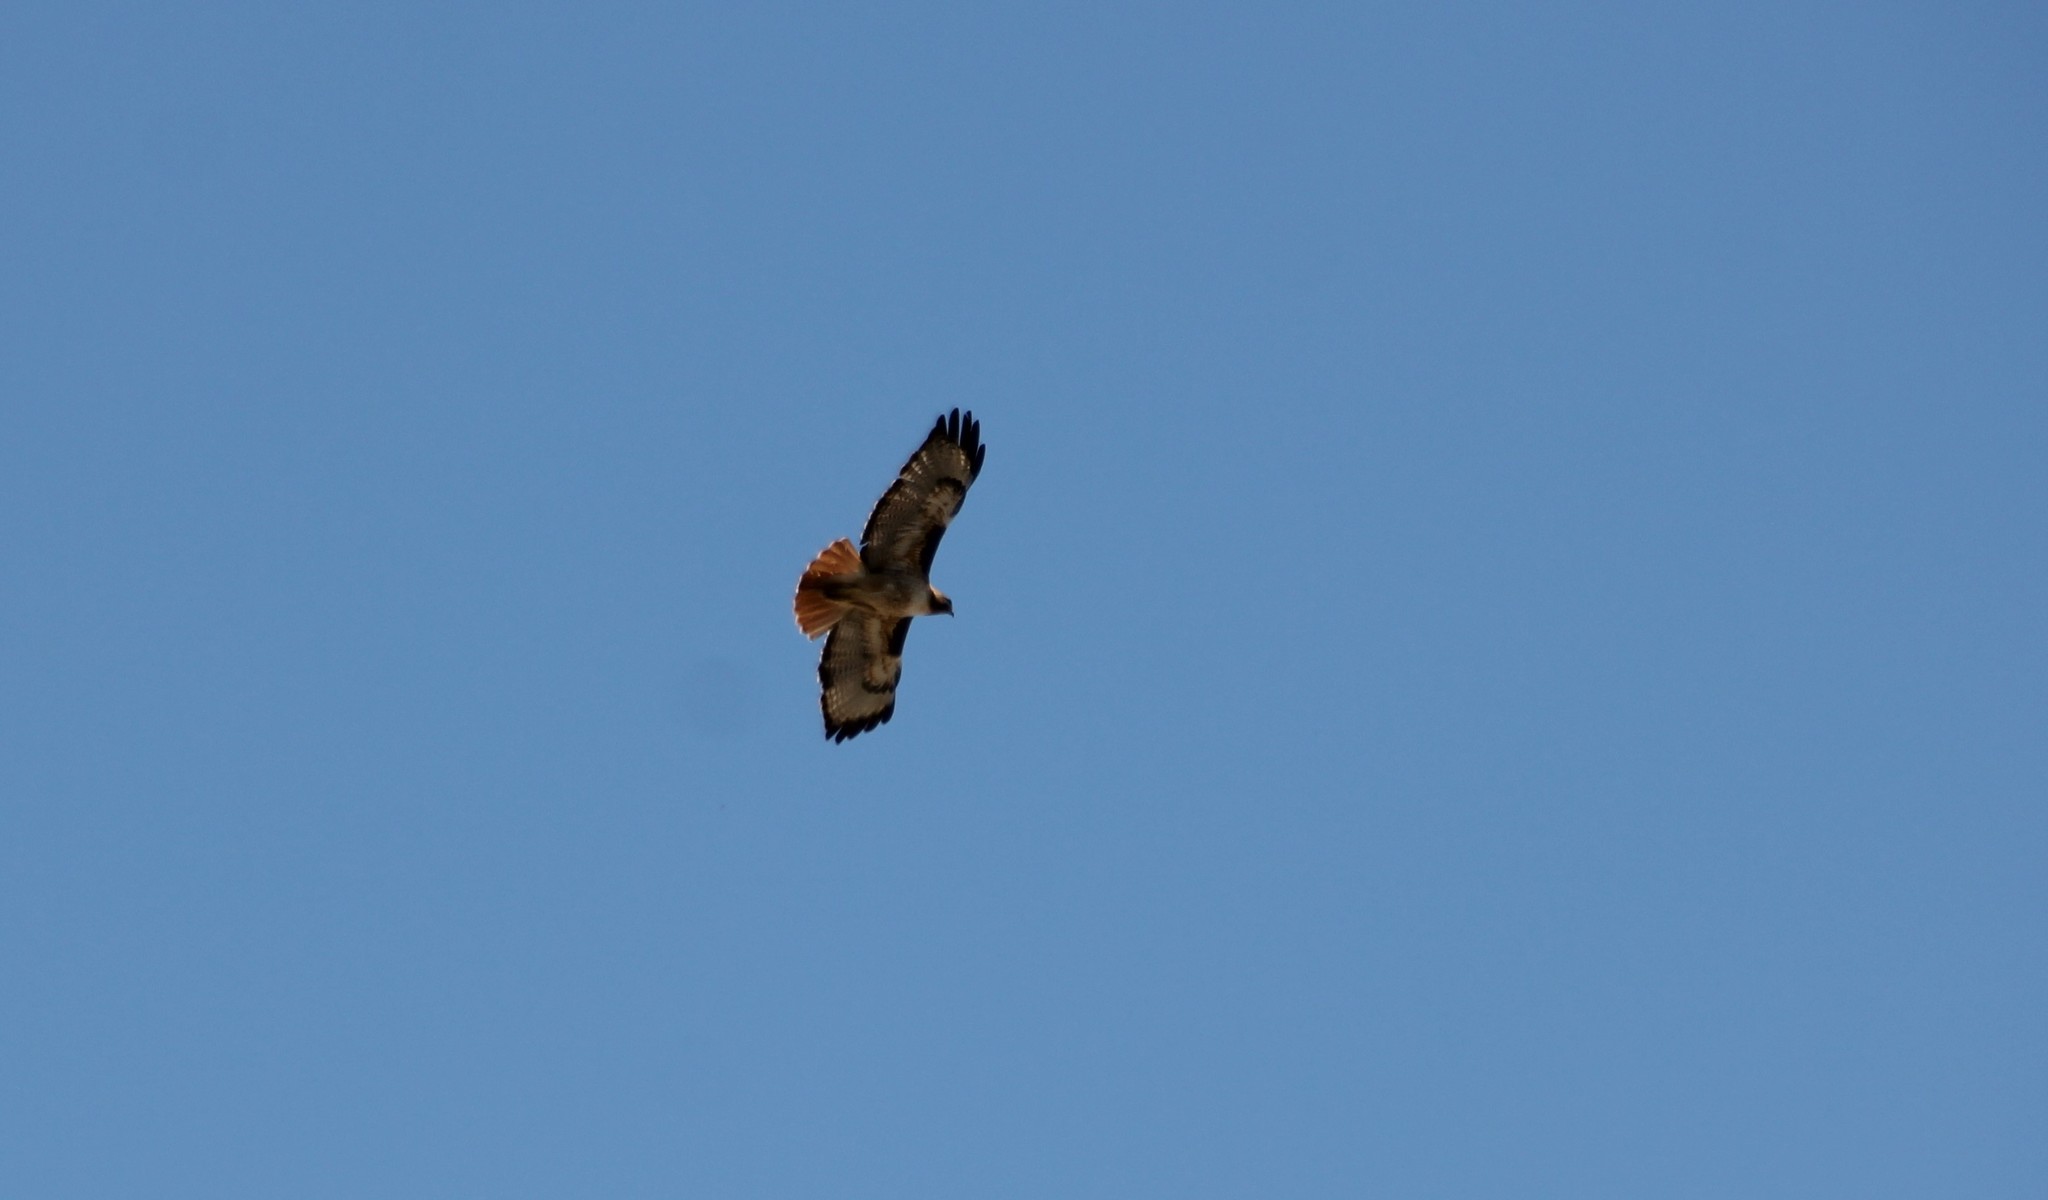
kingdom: Animalia
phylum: Chordata
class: Aves
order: Accipitriformes
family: Accipitridae
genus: Buteo
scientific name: Buteo jamaicensis
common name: Red-tailed hawk
